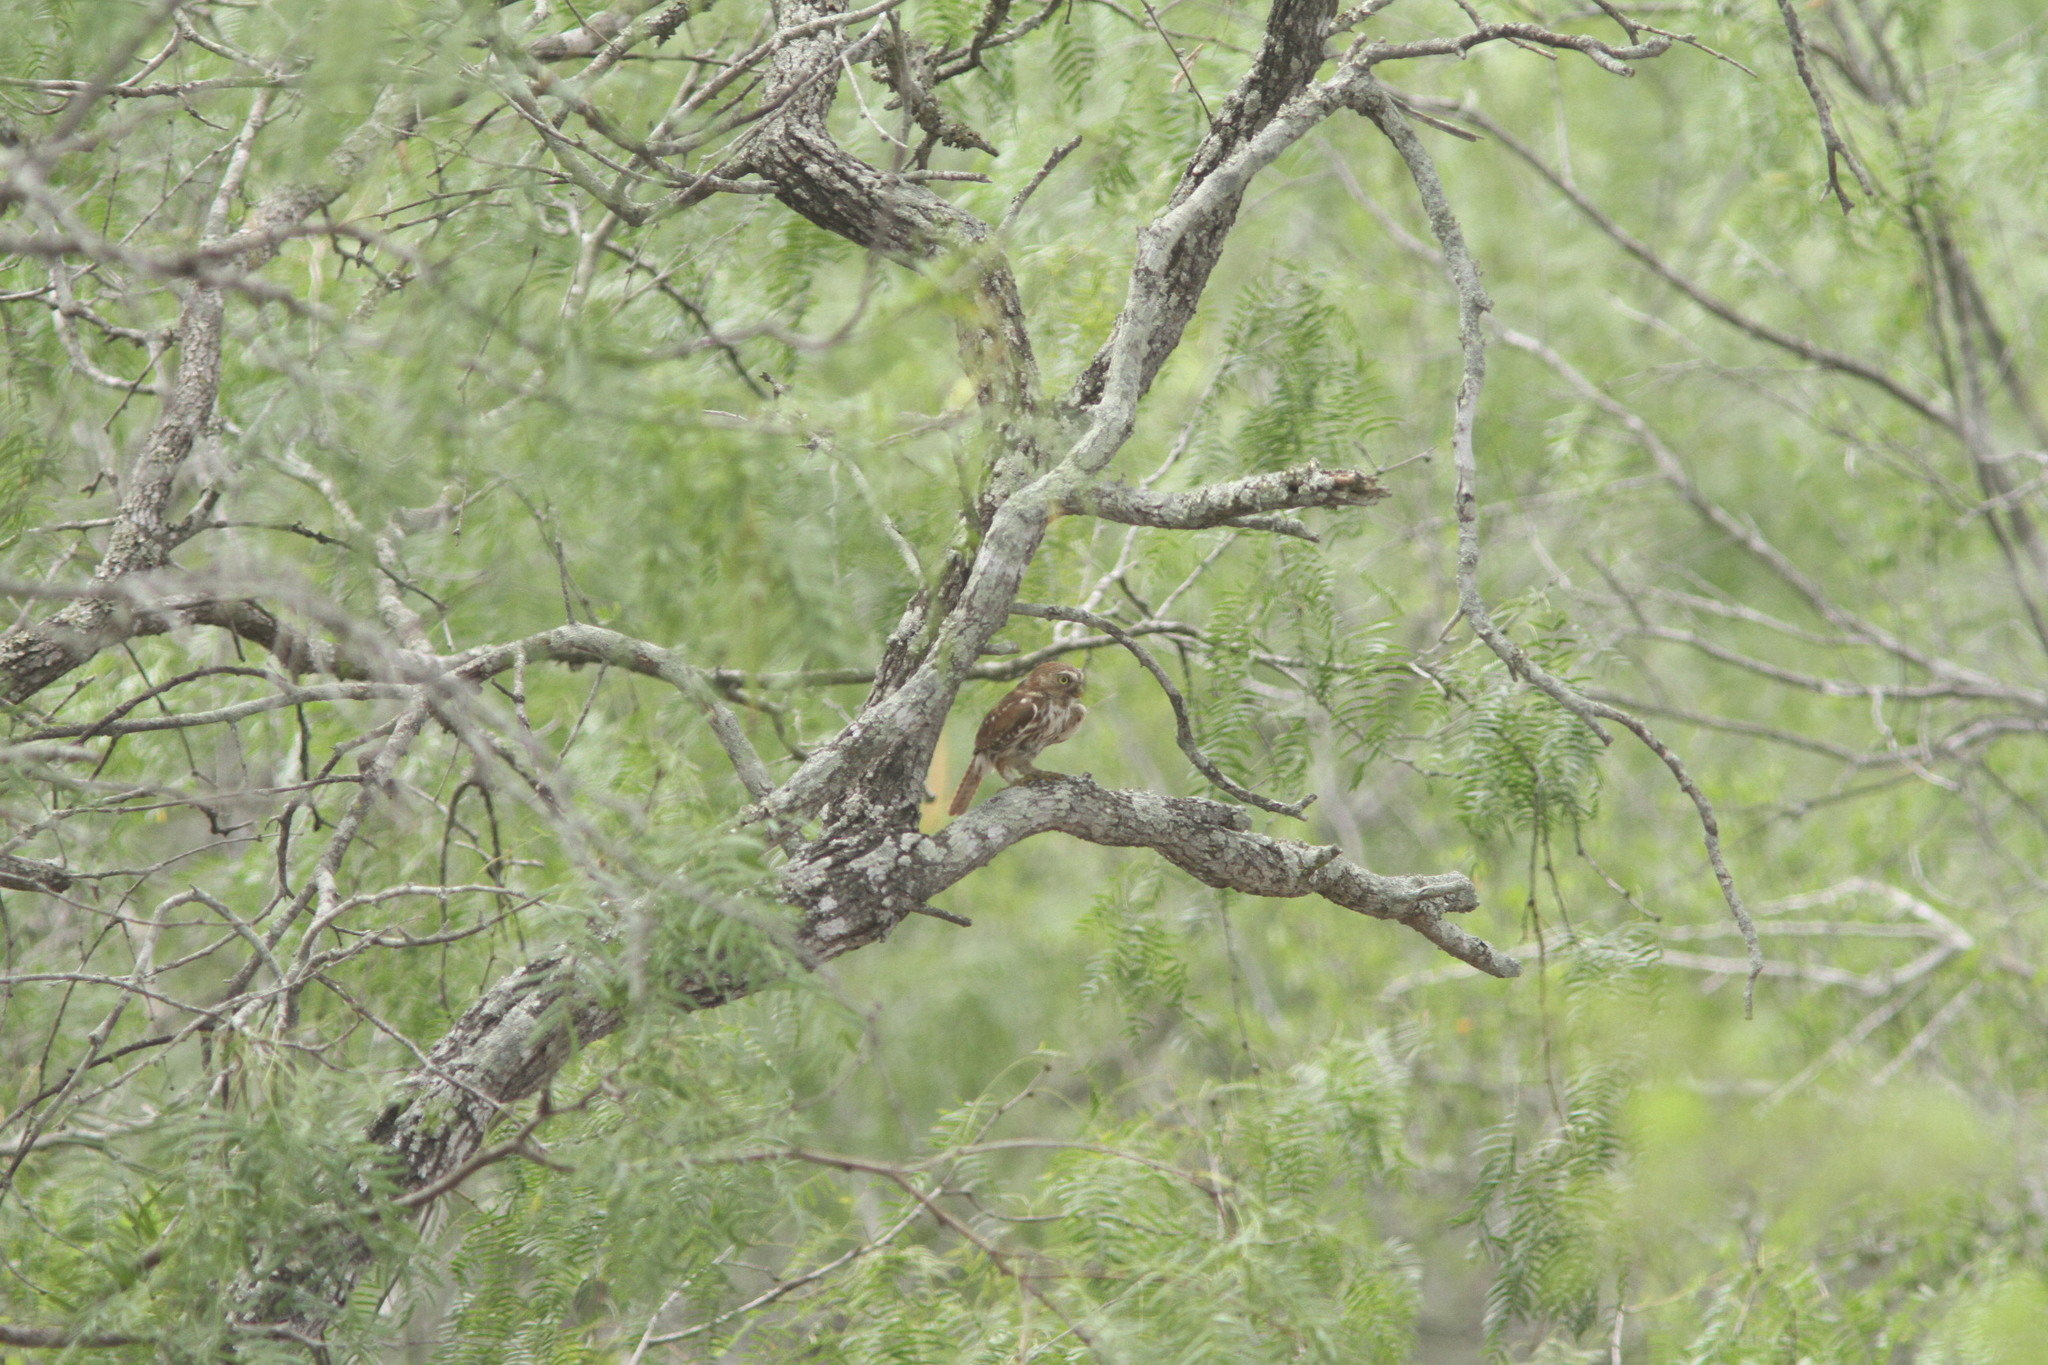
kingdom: Animalia
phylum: Chordata
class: Aves
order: Strigiformes
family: Strigidae
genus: Glaucidium
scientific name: Glaucidium brasilianum
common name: Ferruginous pygmy-owl
